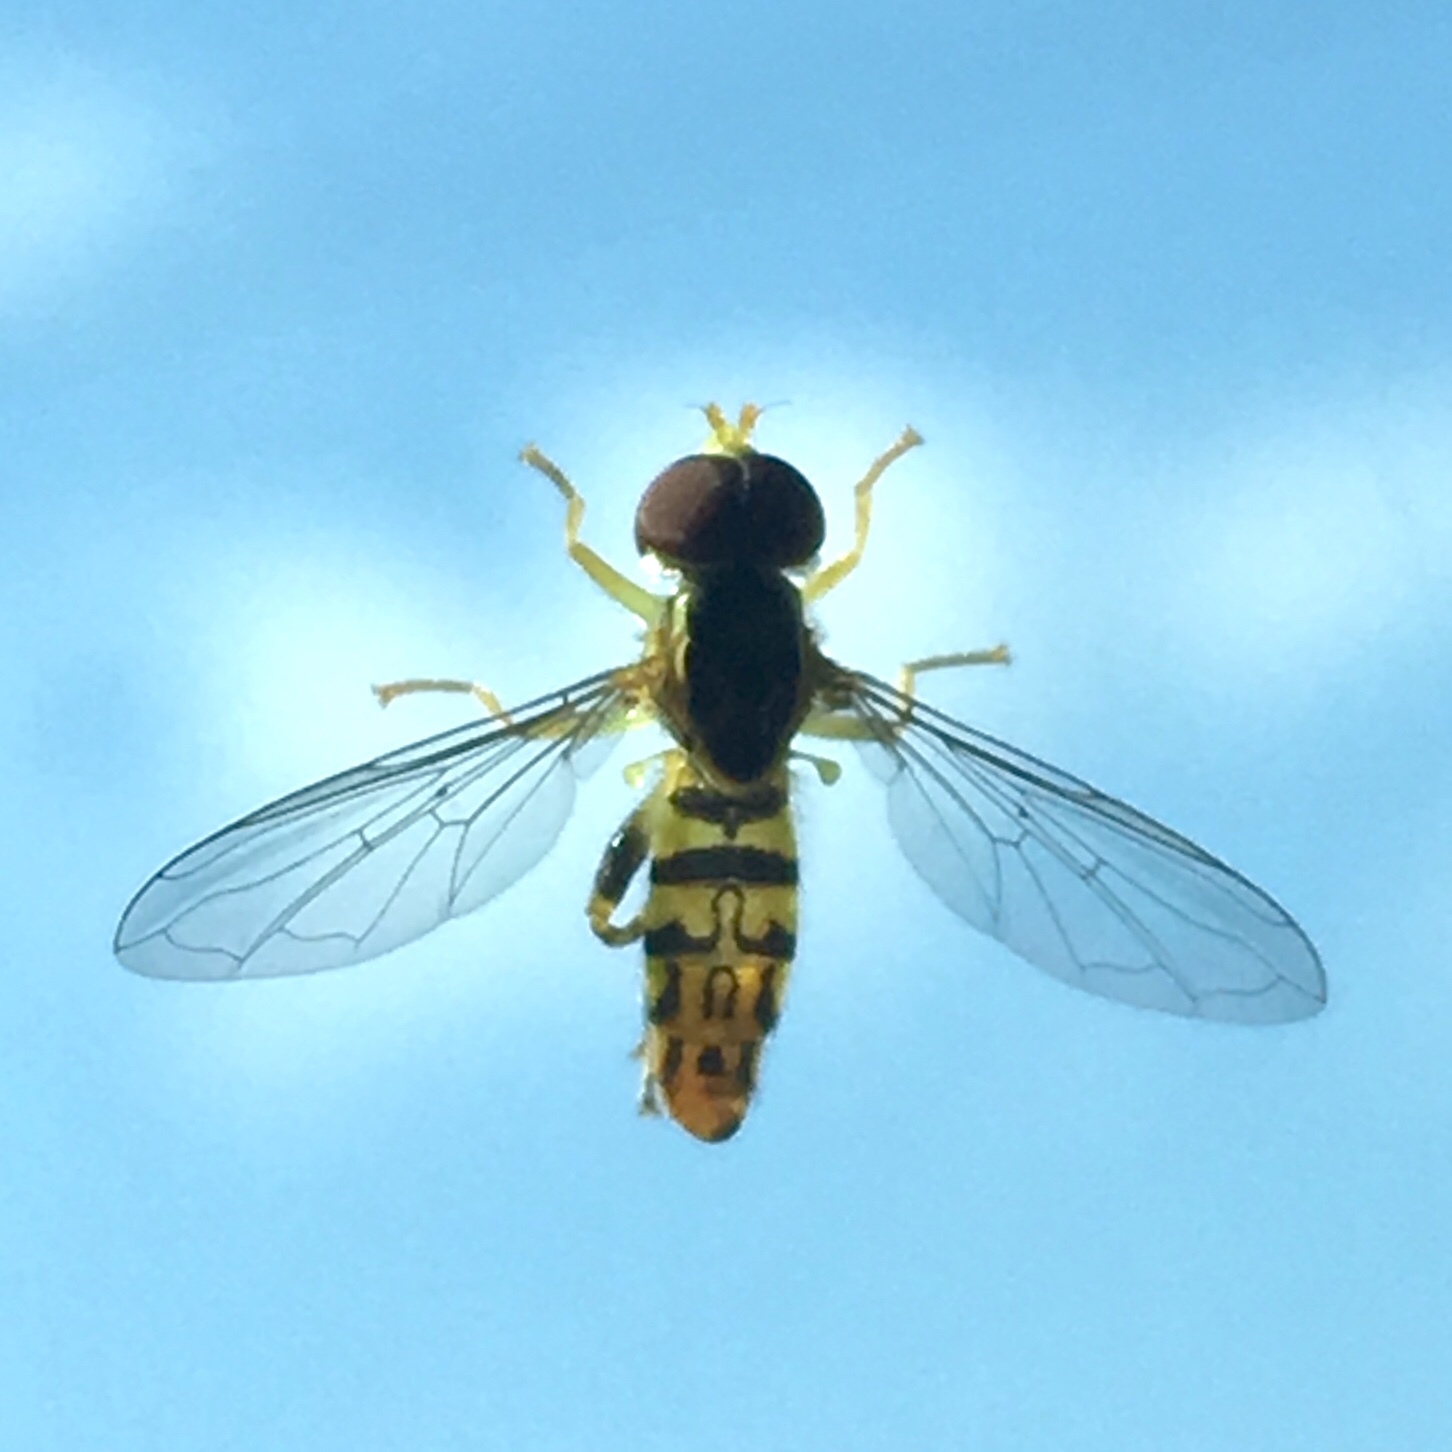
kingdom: Animalia
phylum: Arthropoda
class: Insecta
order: Diptera
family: Syrphidae
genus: Toxomerus
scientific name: Toxomerus geminatus
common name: Eastern calligrapher
